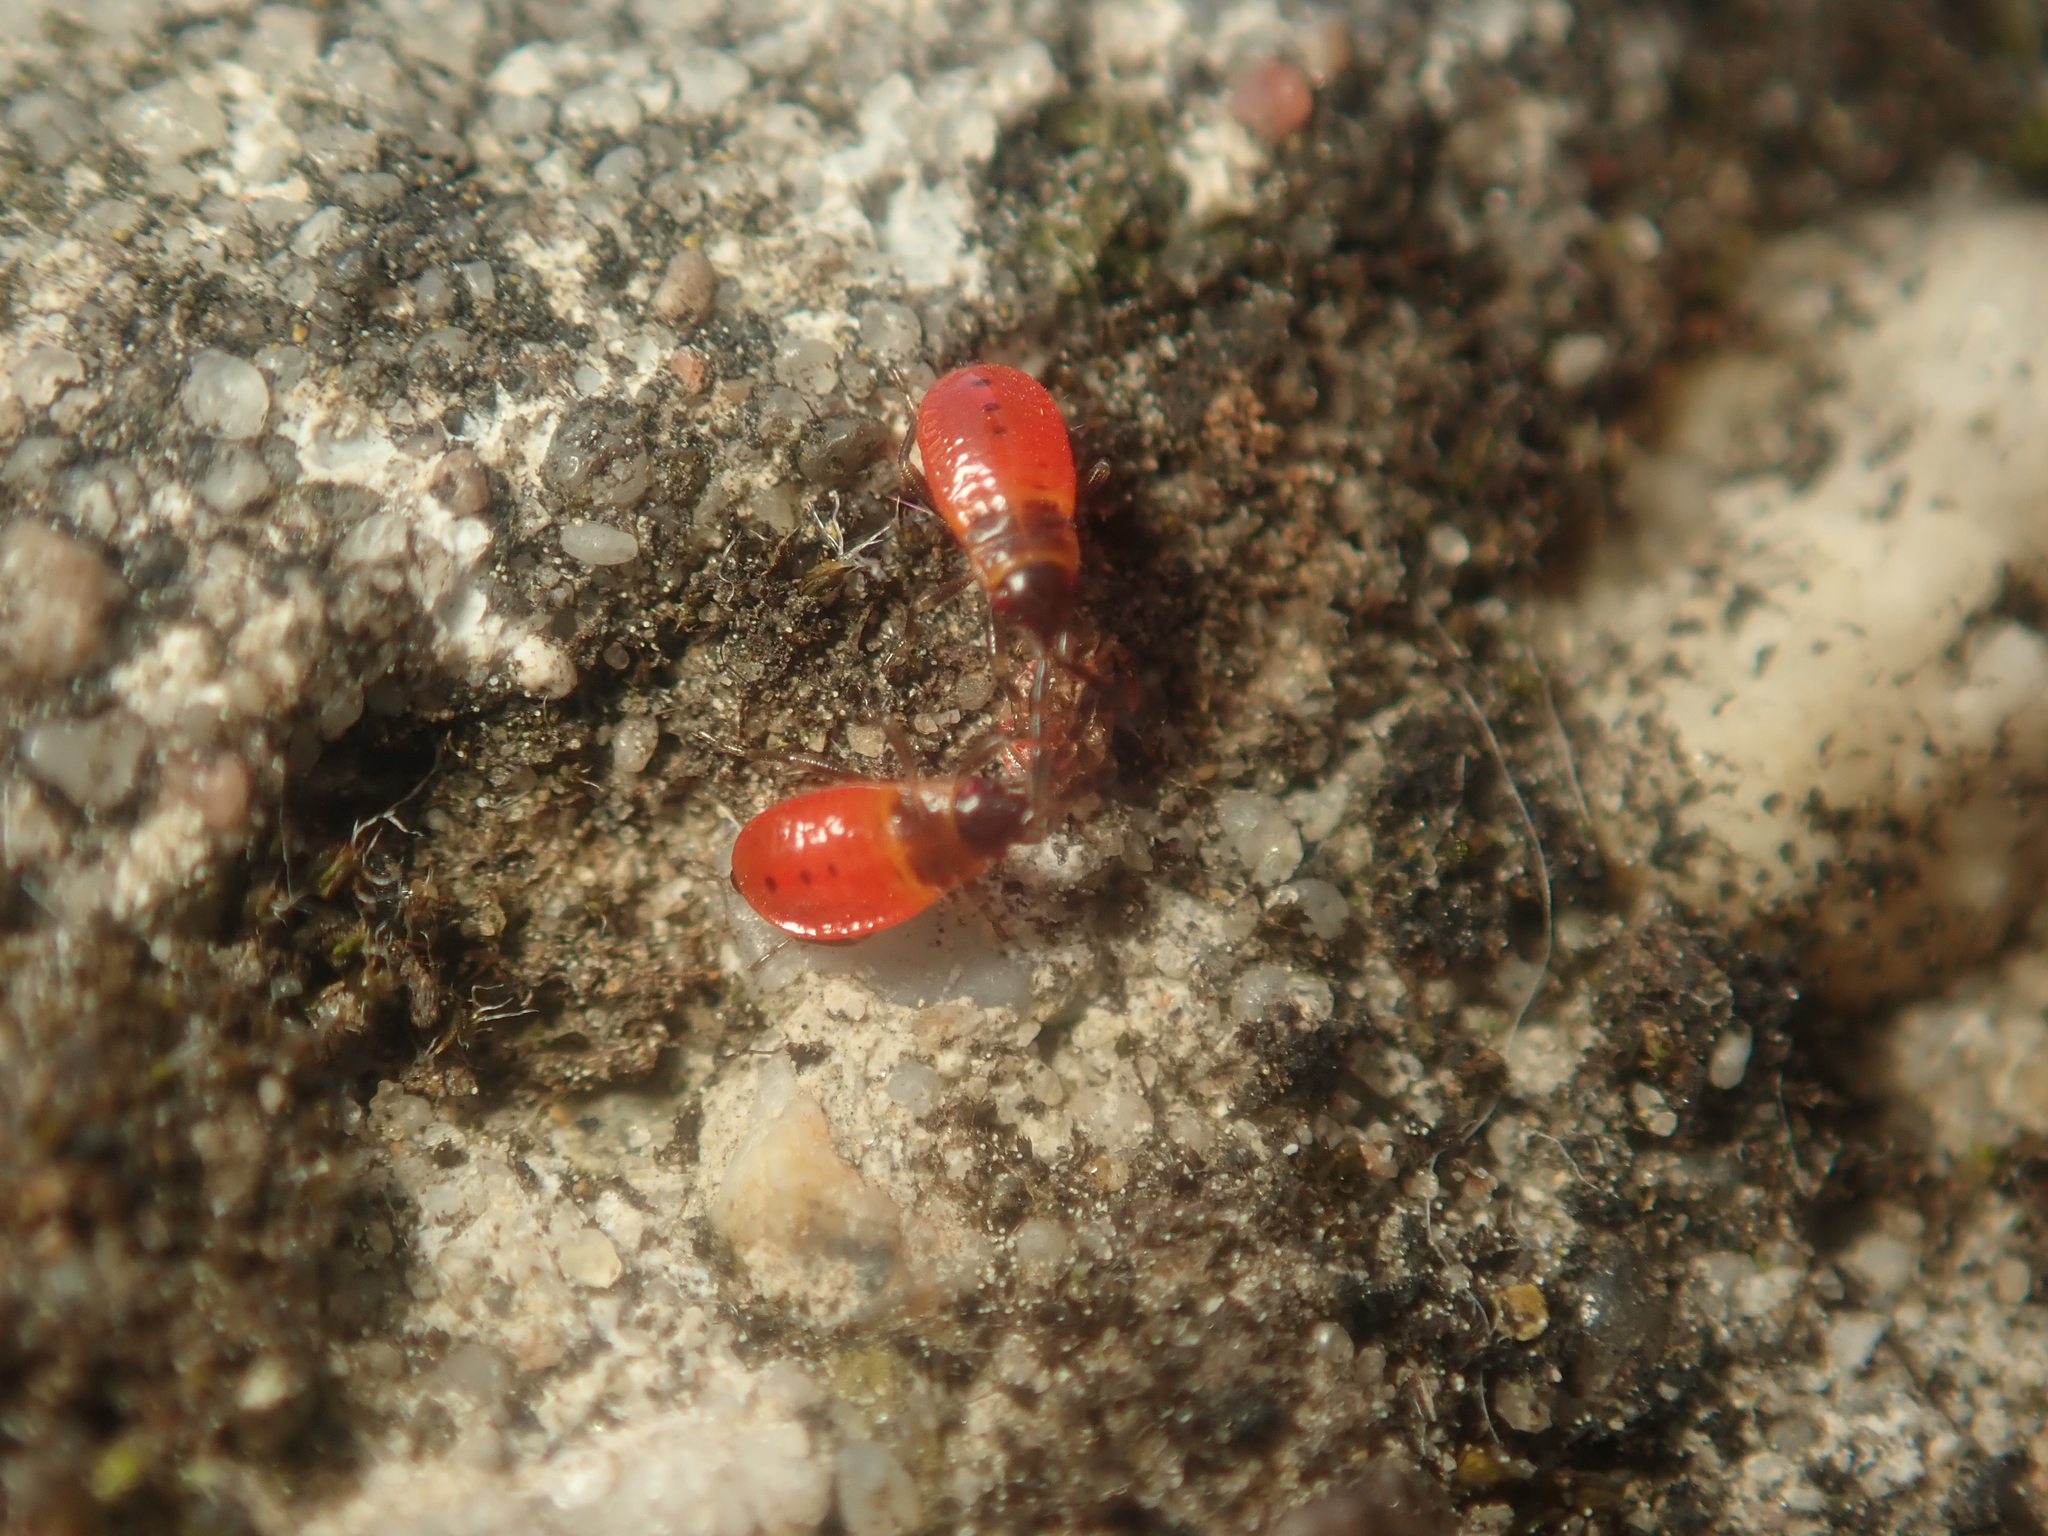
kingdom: Animalia
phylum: Arthropoda
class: Insecta
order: Hemiptera
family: Pyrrhocoridae
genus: Pyrrhocoris
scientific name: Pyrrhocoris apterus
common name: Firebug
